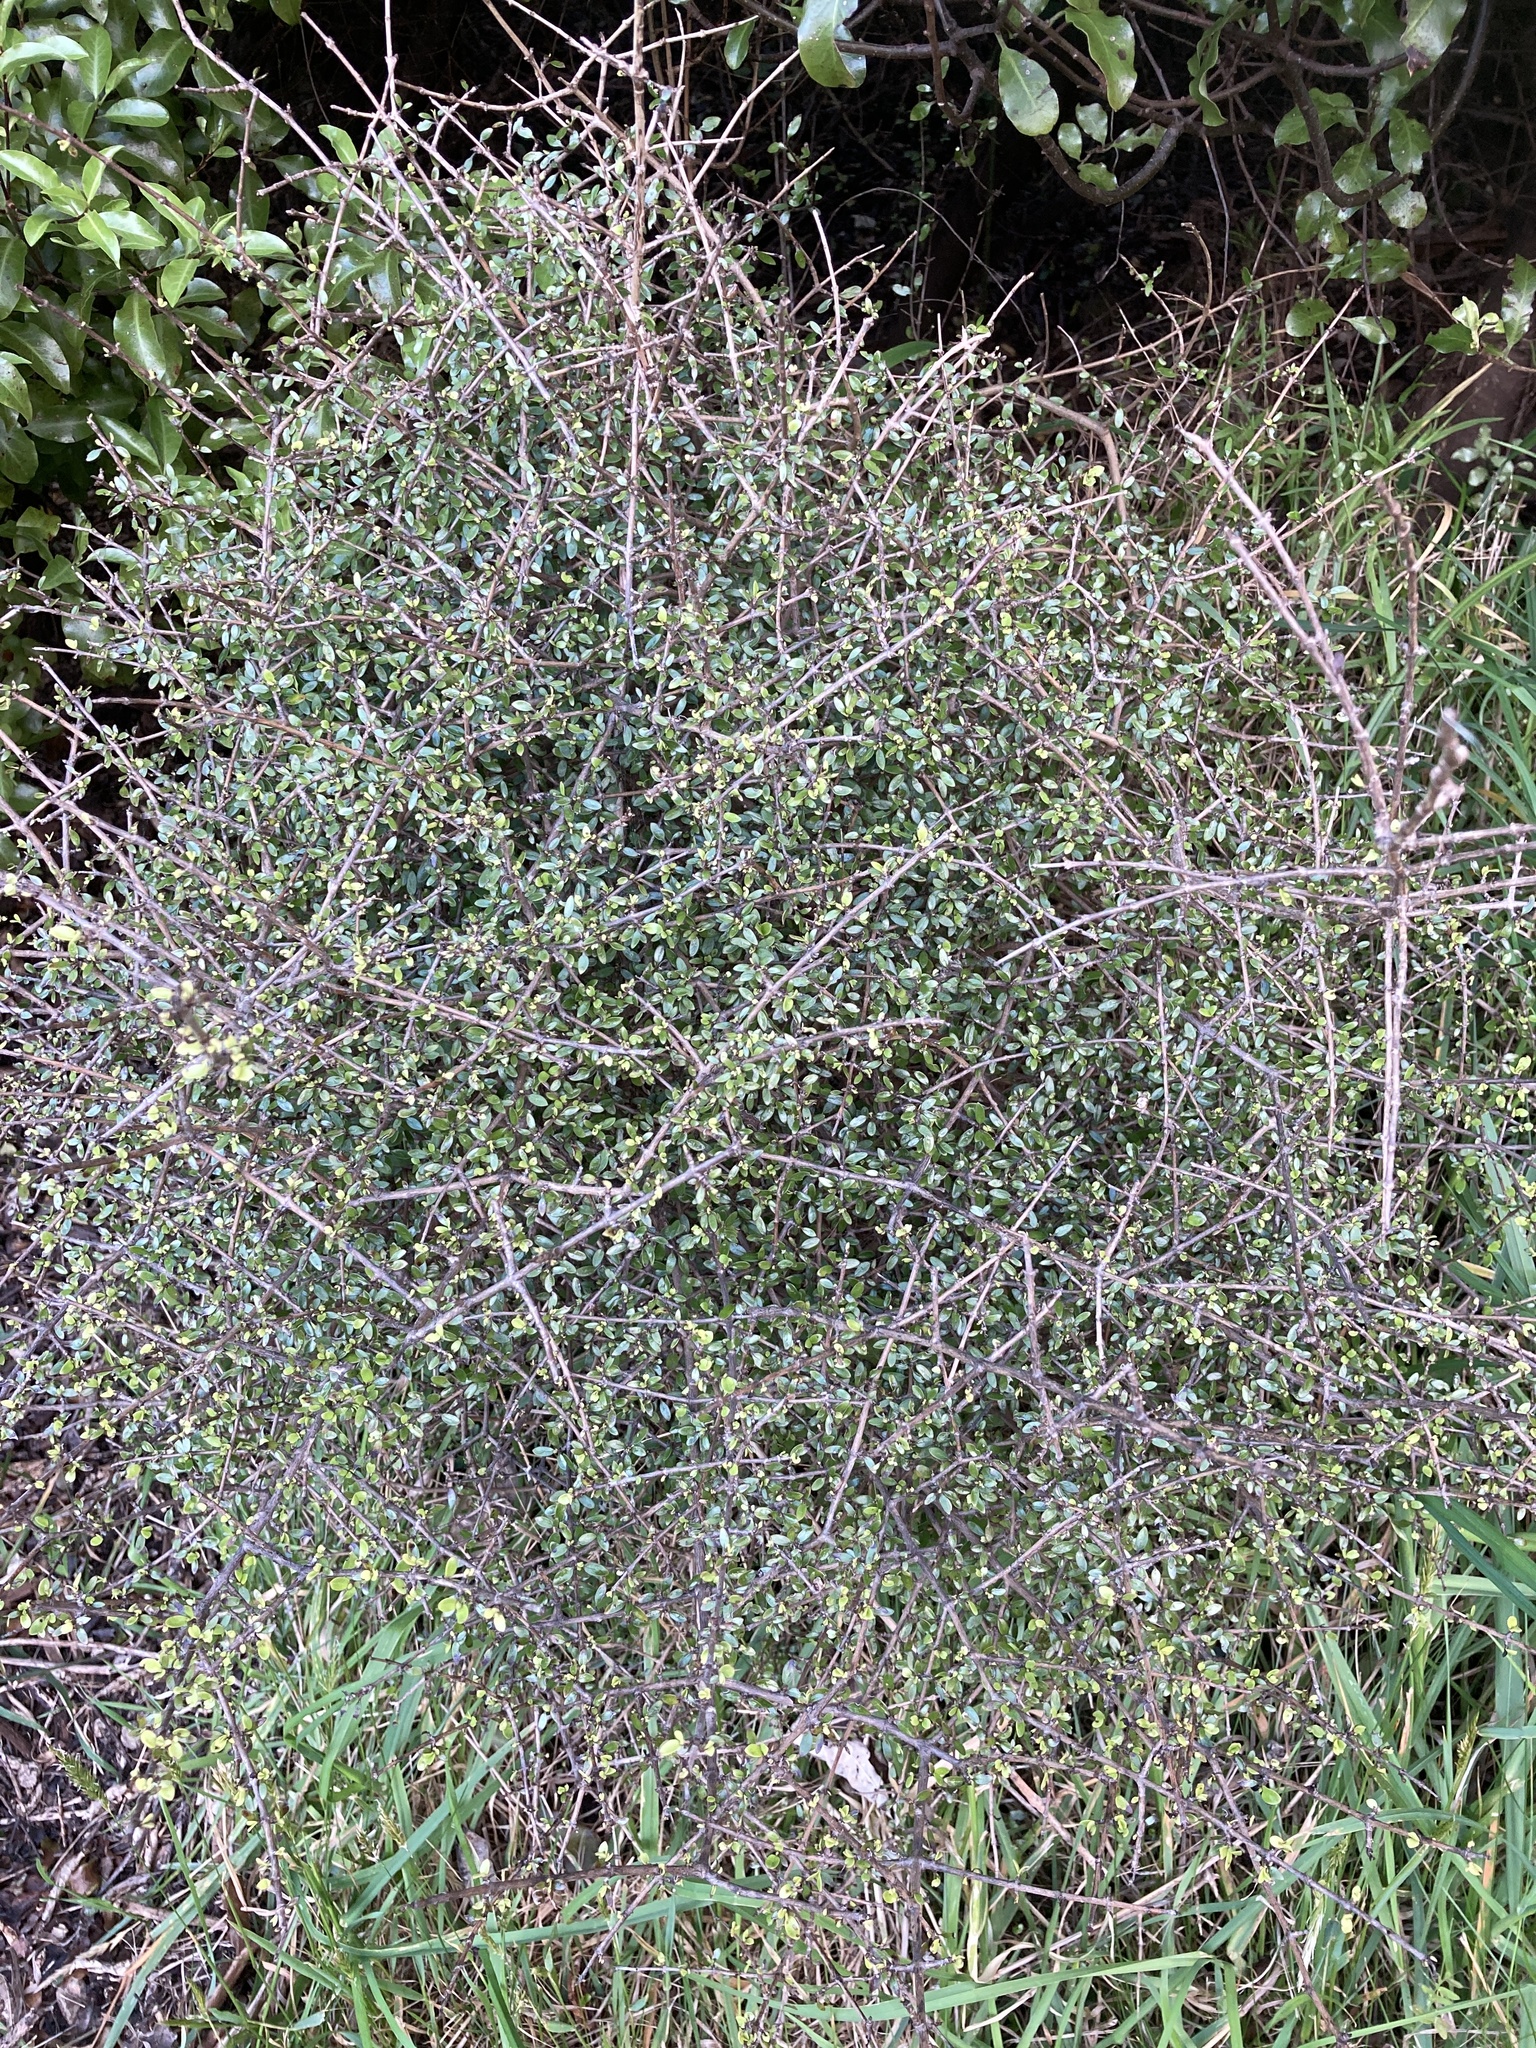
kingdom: Plantae
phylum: Tracheophyta
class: Magnoliopsida
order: Gentianales
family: Rubiaceae
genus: Coprosma
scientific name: Coprosma propinqua
